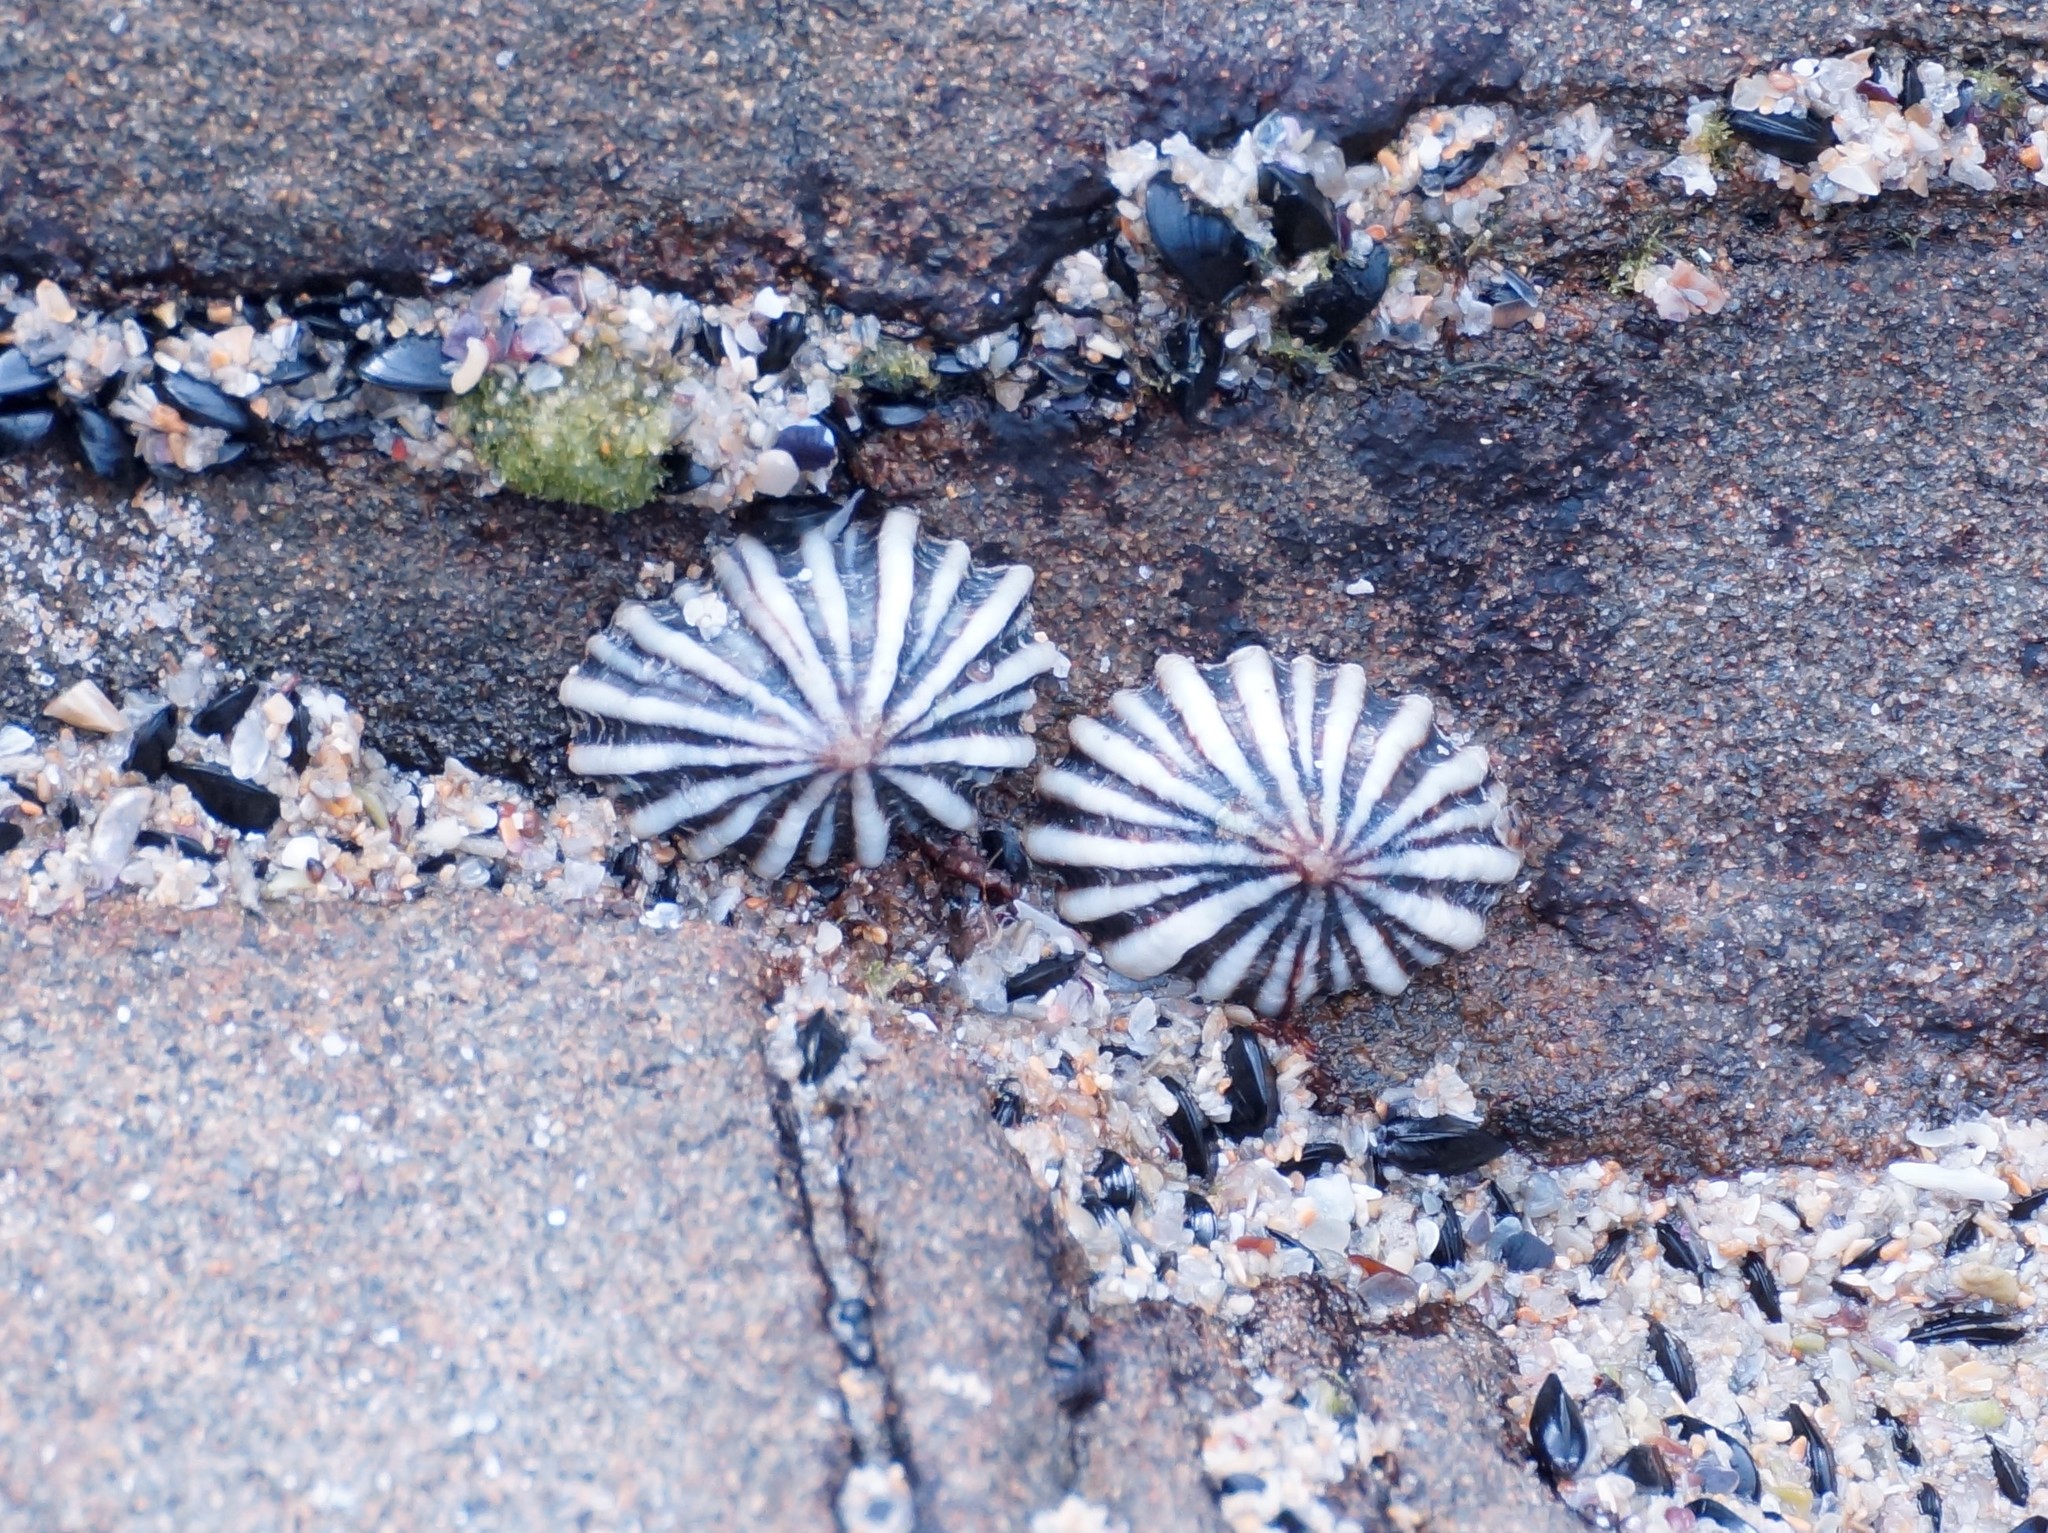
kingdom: Animalia
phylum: Mollusca
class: Gastropoda
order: Siphonariida
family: Siphonariidae
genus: Siphonaria
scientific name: Siphonaria diemenensis
